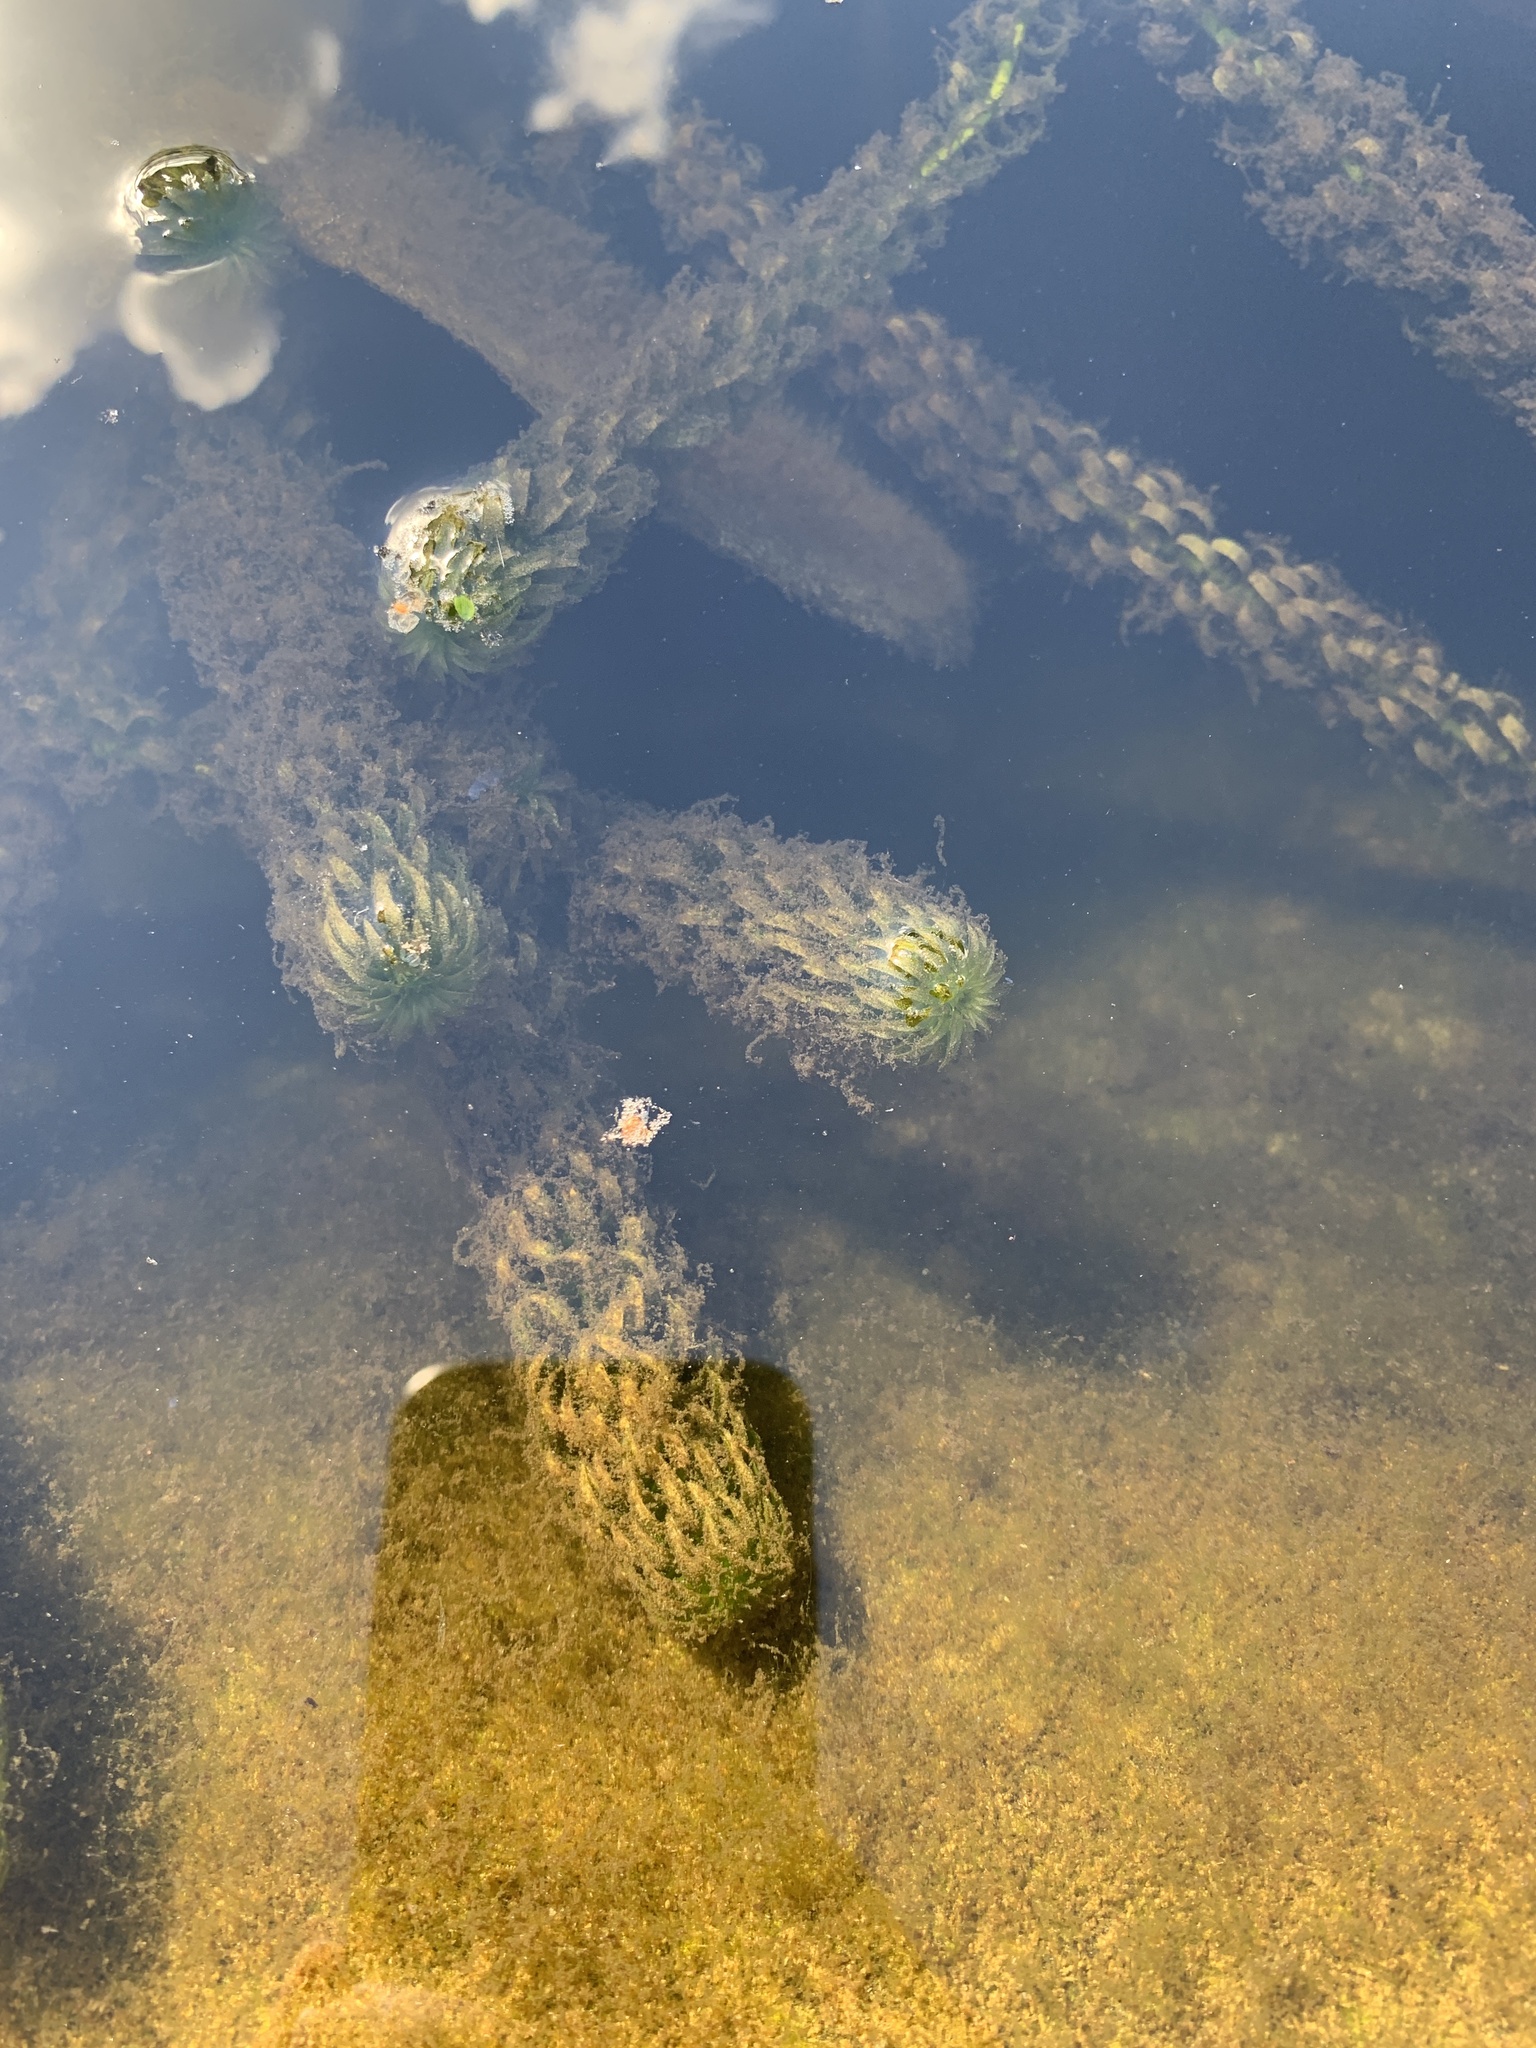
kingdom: Plantae
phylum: Tracheophyta
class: Liliopsida
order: Alismatales
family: Hydrocharitaceae
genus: Lagarosiphon
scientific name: Lagarosiphon major
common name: Curly waterweed
